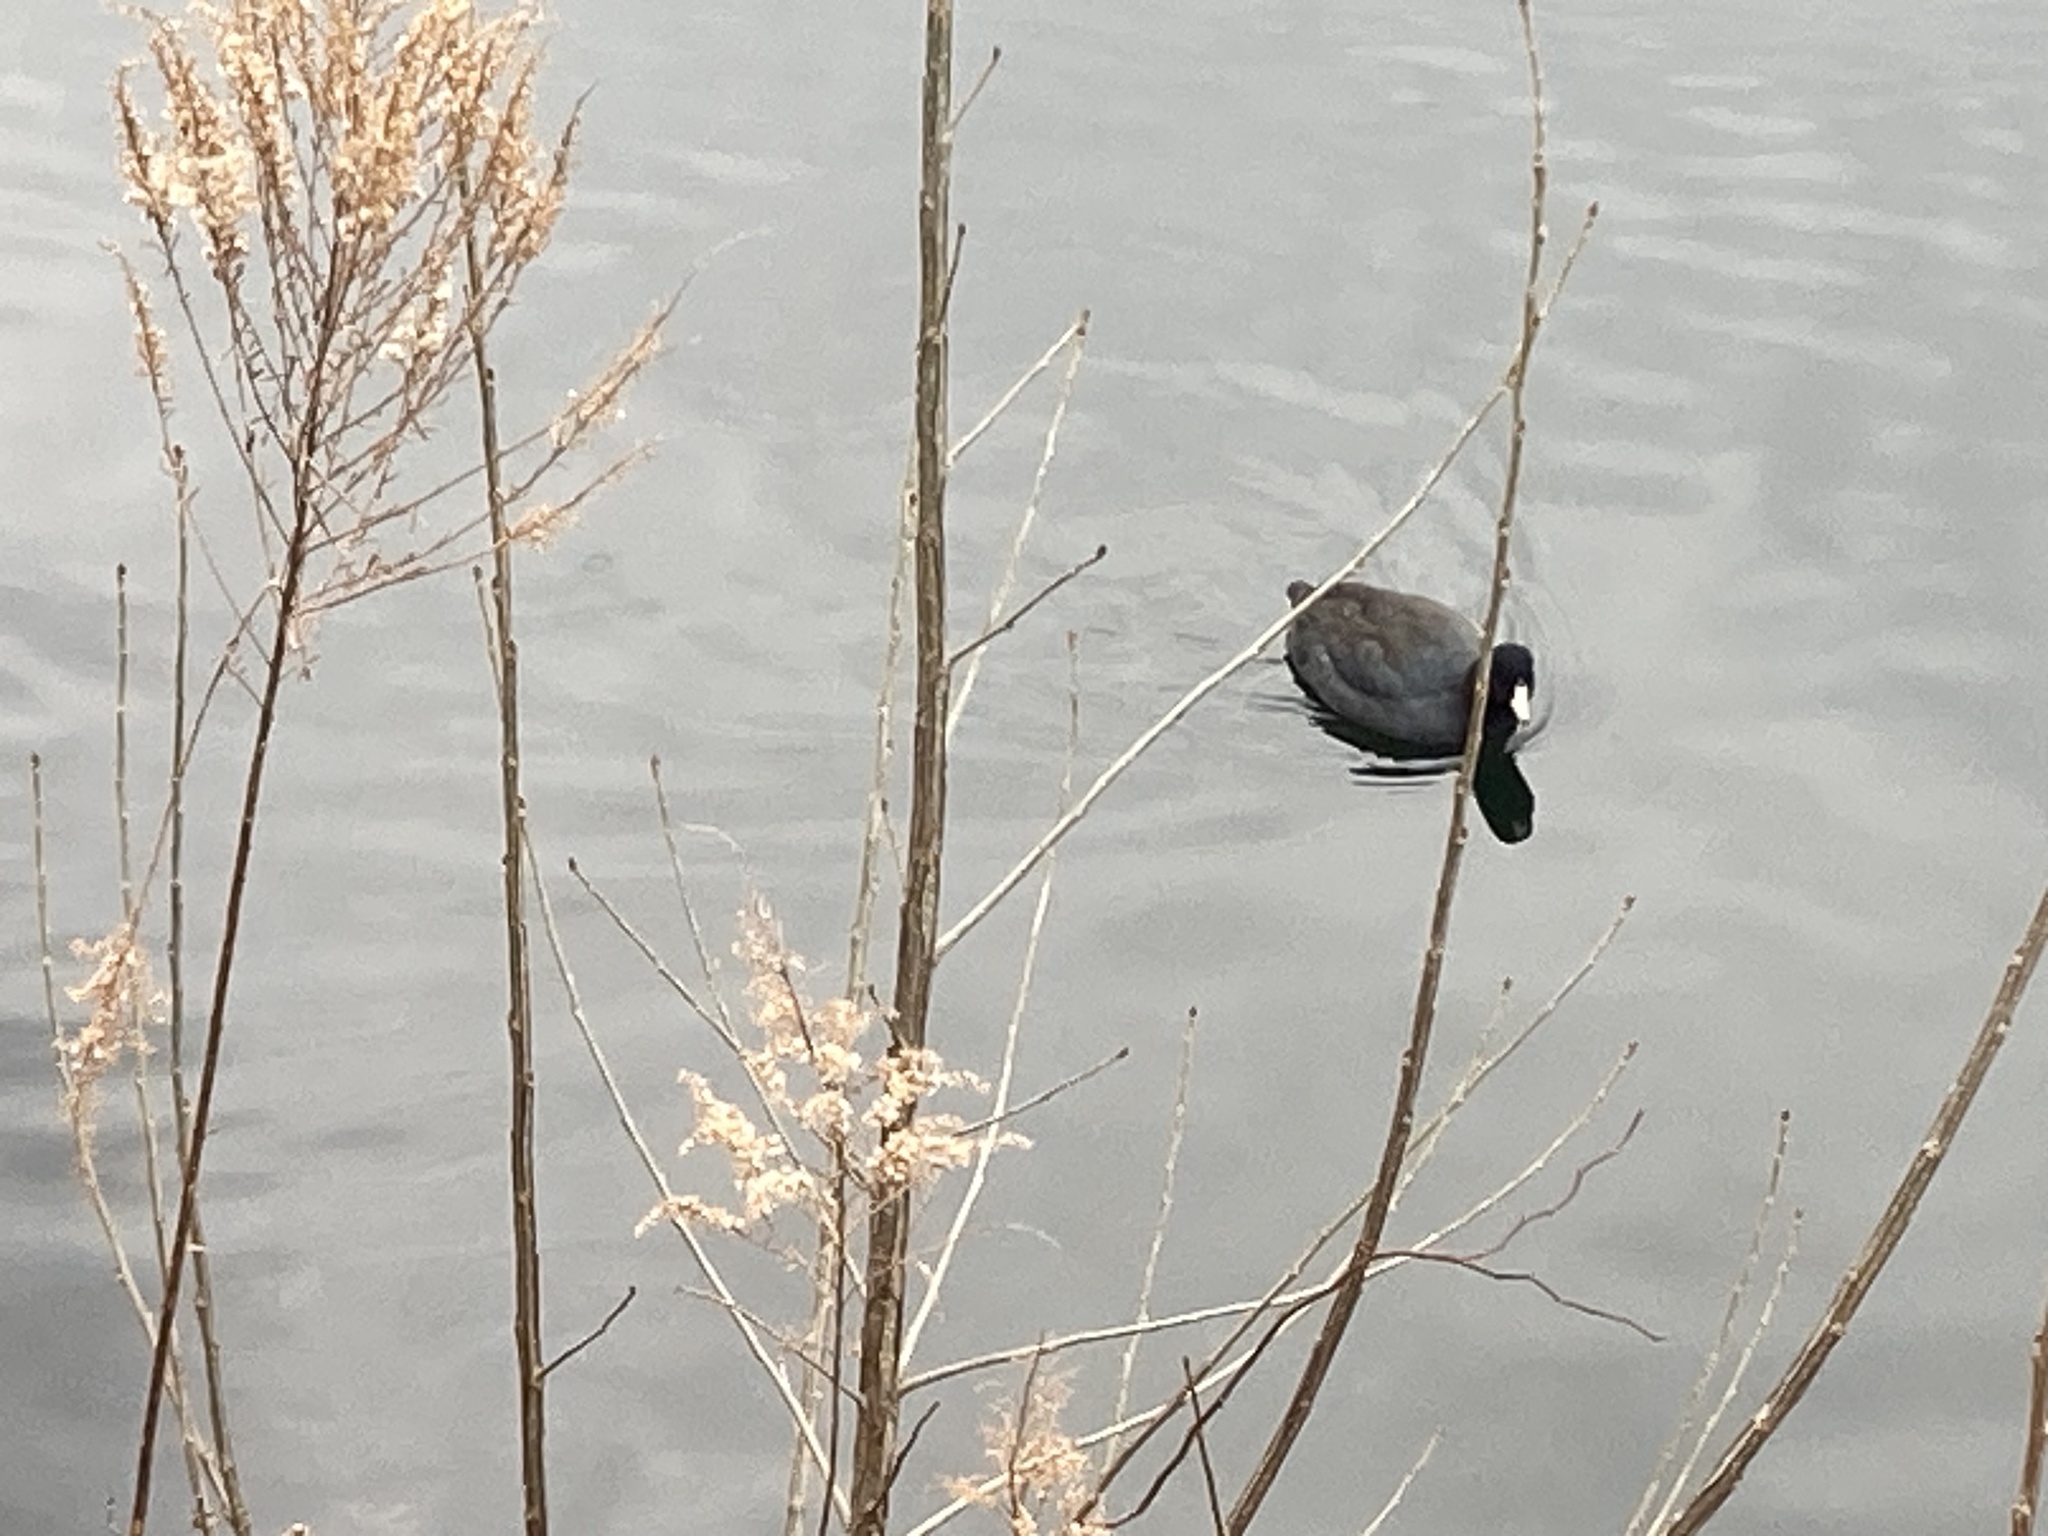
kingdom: Animalia
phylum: Chordata
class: Aves
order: Gruiformes
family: Rallidae
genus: Fulica
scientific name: Fulica americana
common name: American coot
